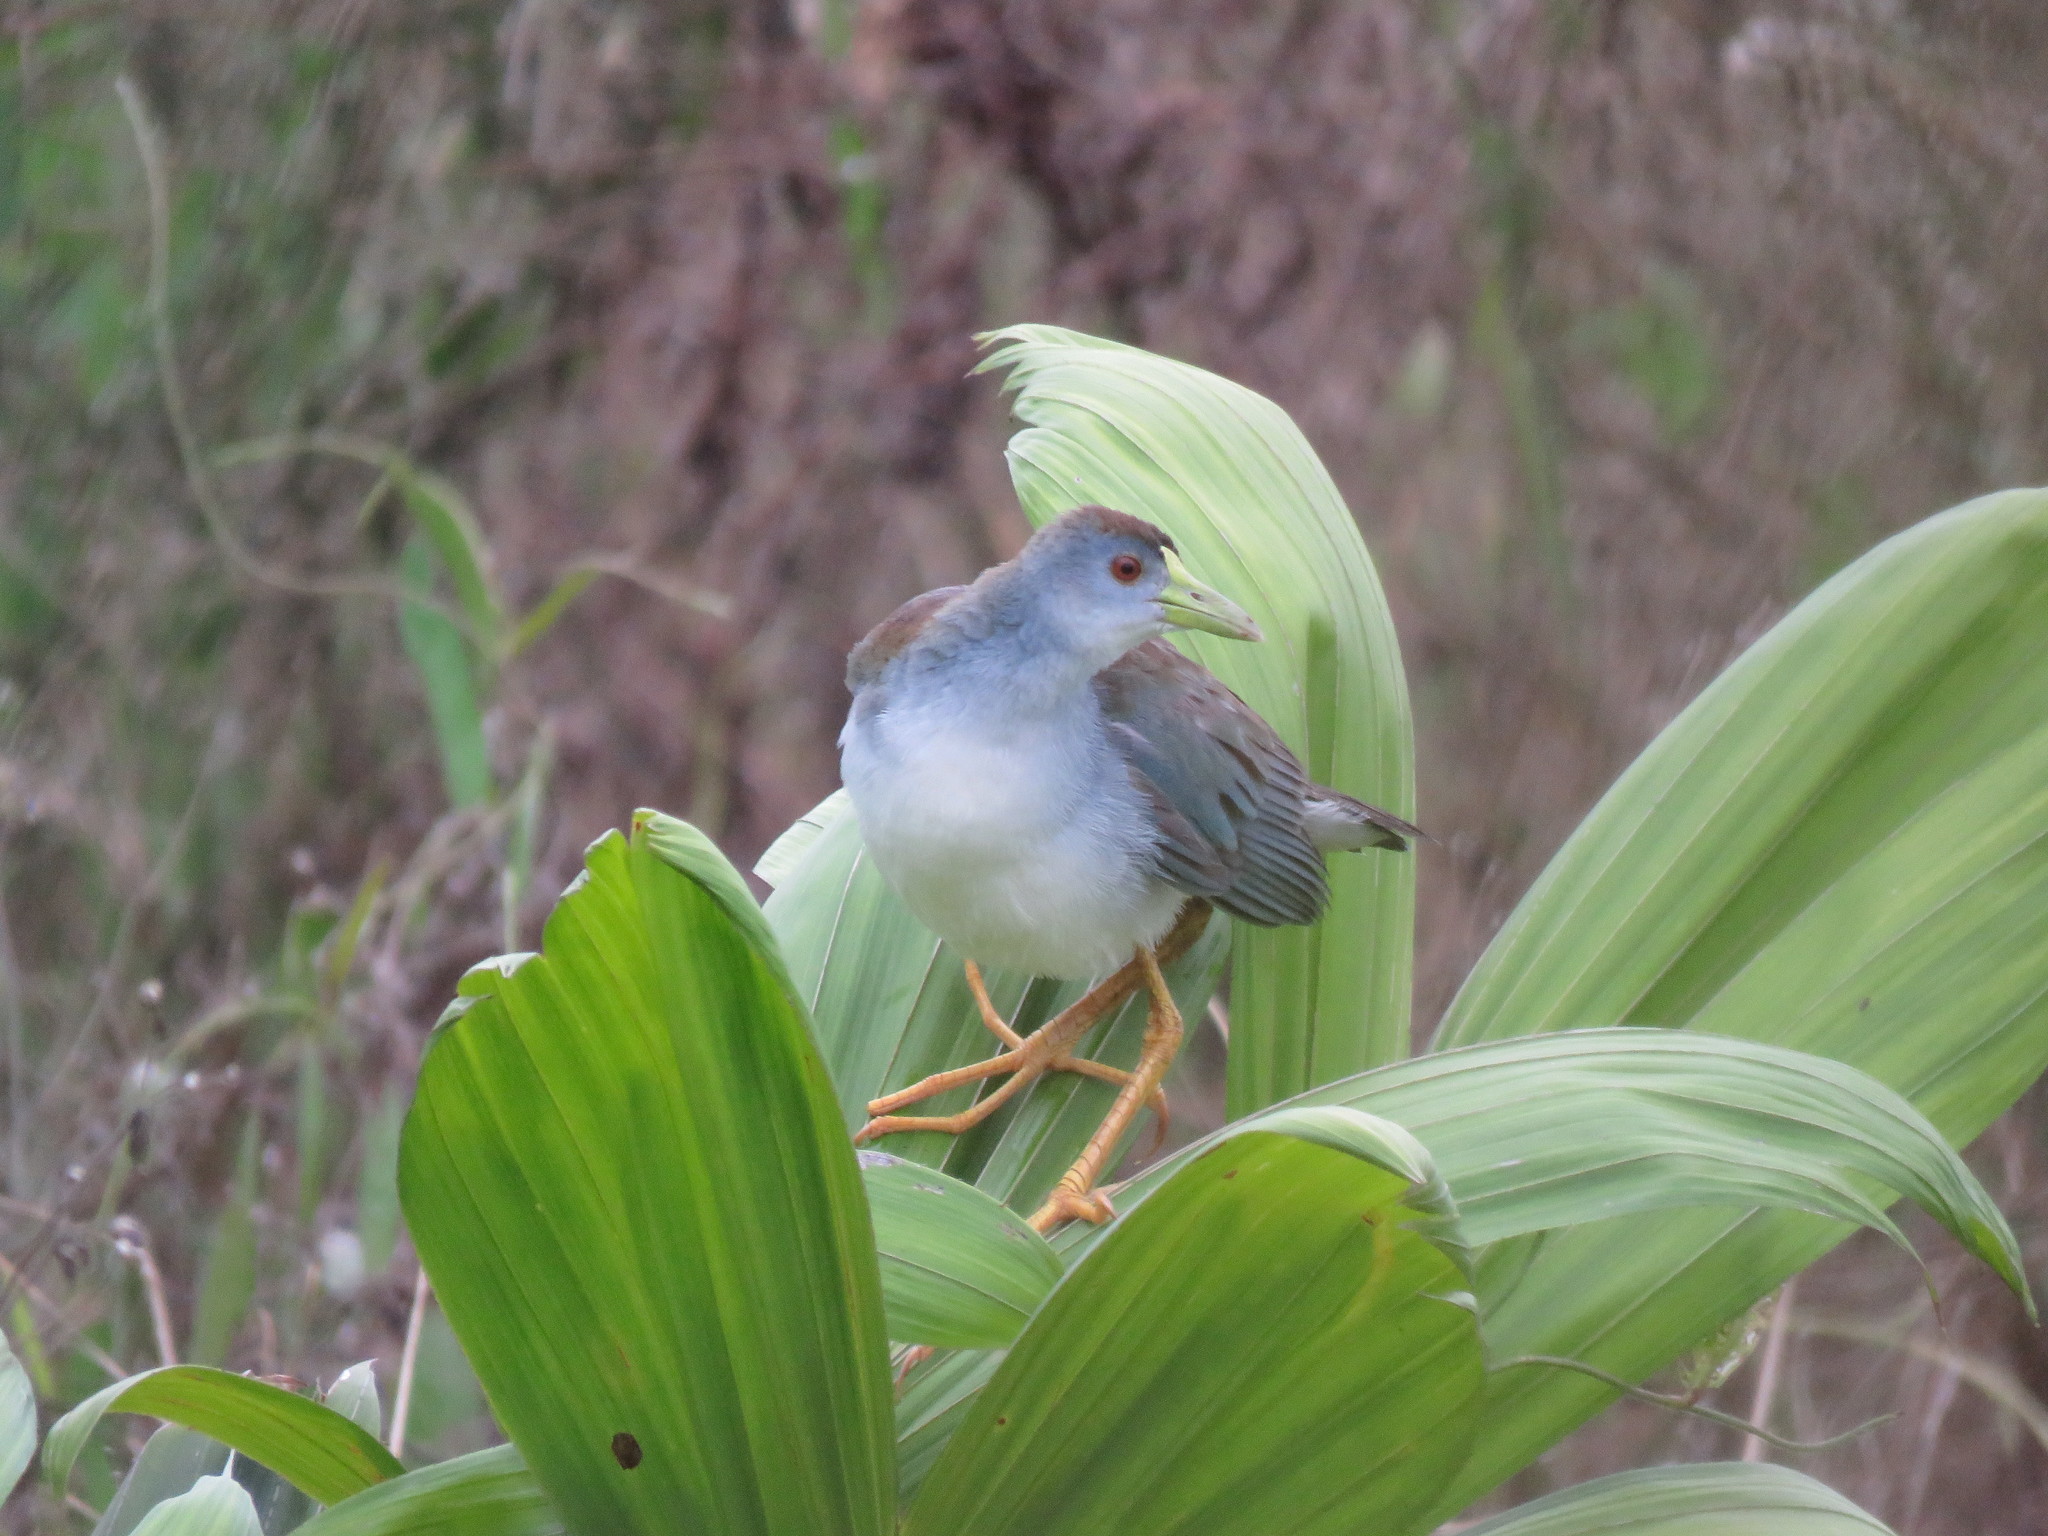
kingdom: Animalia
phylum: Chordata
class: Aves
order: Gruiformes
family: Rallidae
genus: Porphyrio
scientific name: Porphyrio flavirostris
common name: Azure gallinule
